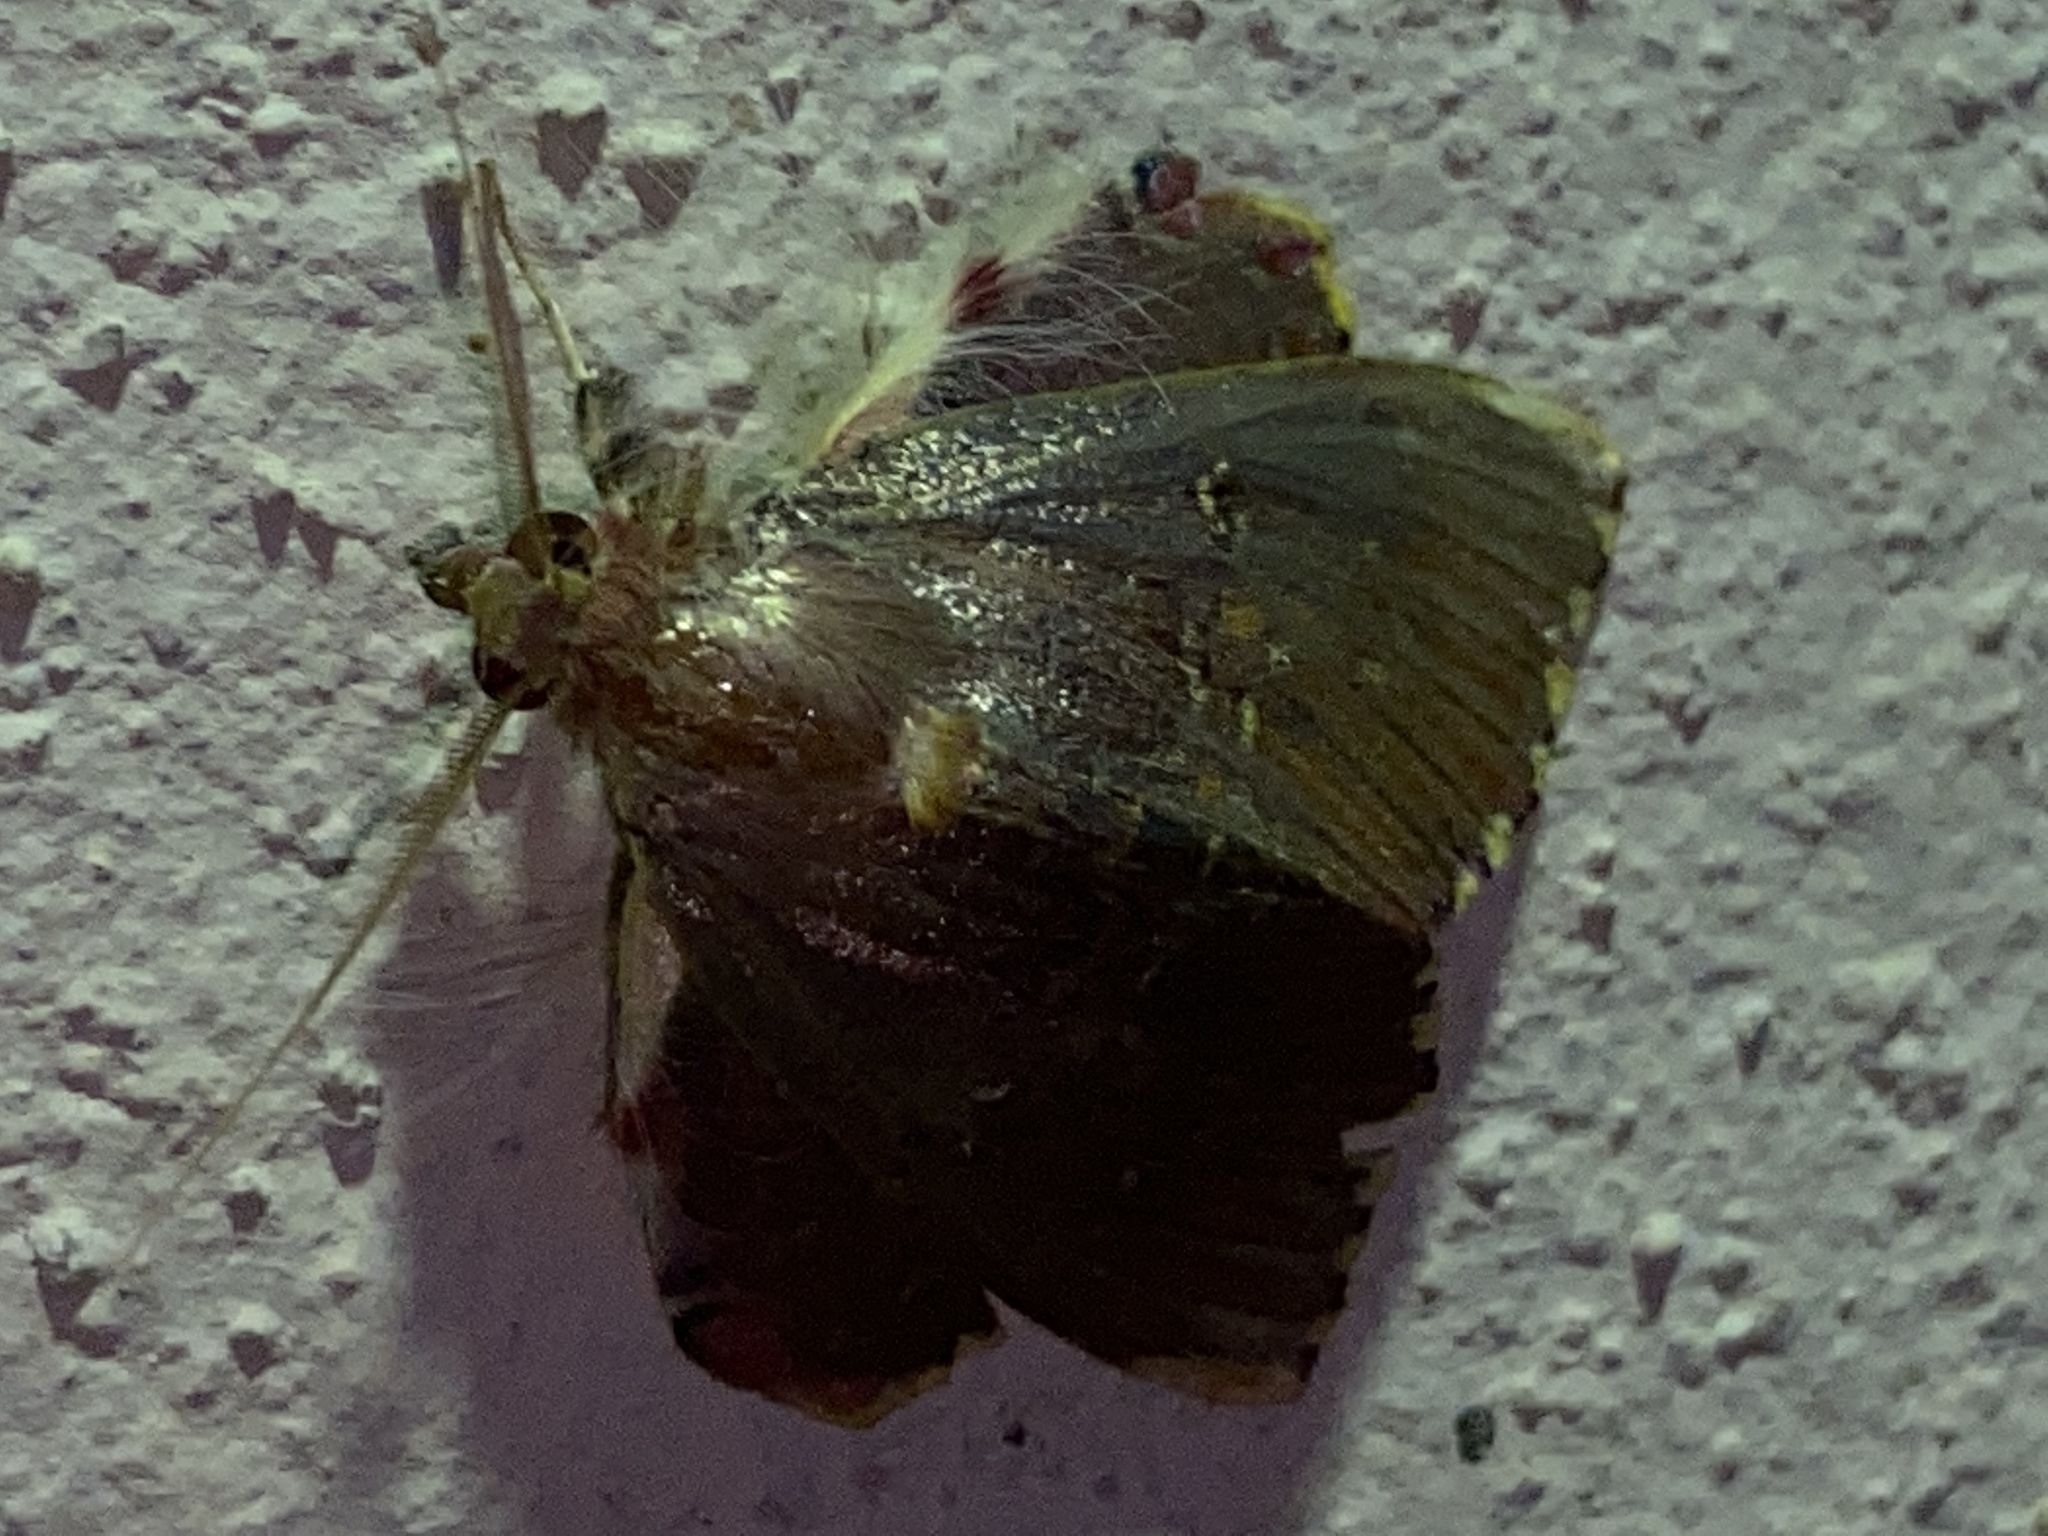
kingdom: Animalia
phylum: Arthropoda
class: Insecta
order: Lepidoptera
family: Erebidae
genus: Sosxetra
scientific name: Sosxetra grata
